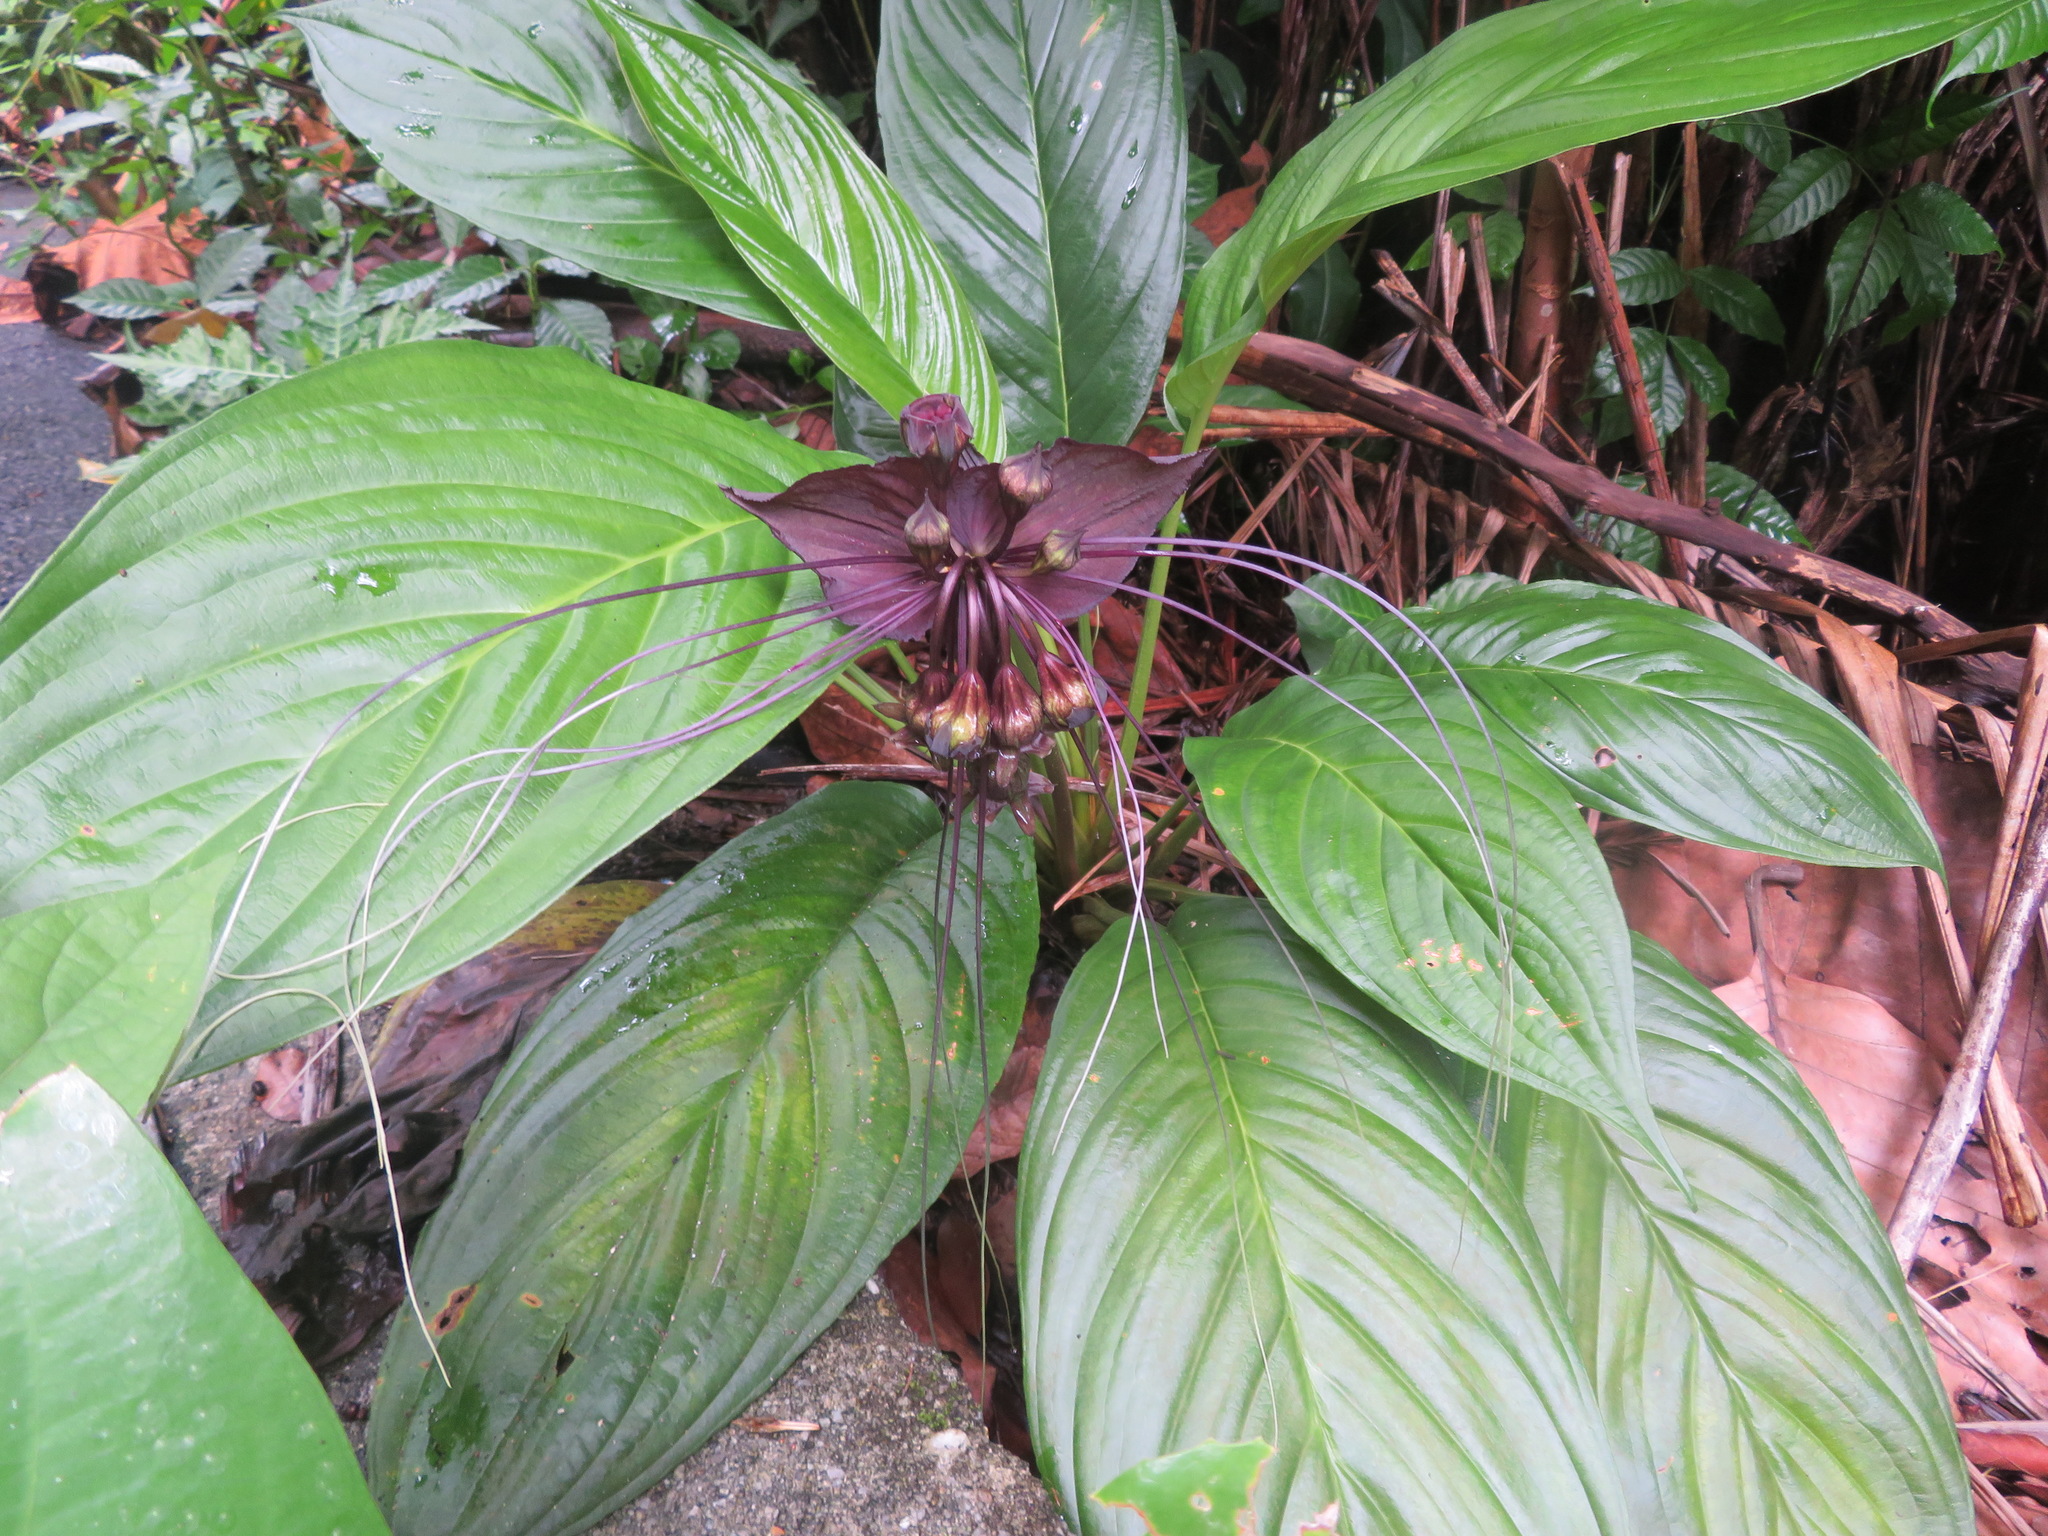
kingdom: Plantae
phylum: Tracheophyta
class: Liliopsida
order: Dioscoreales
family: Dioscoreaceae
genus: Tacca
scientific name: Tacca chantrieri
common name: Cat's-whiskers
